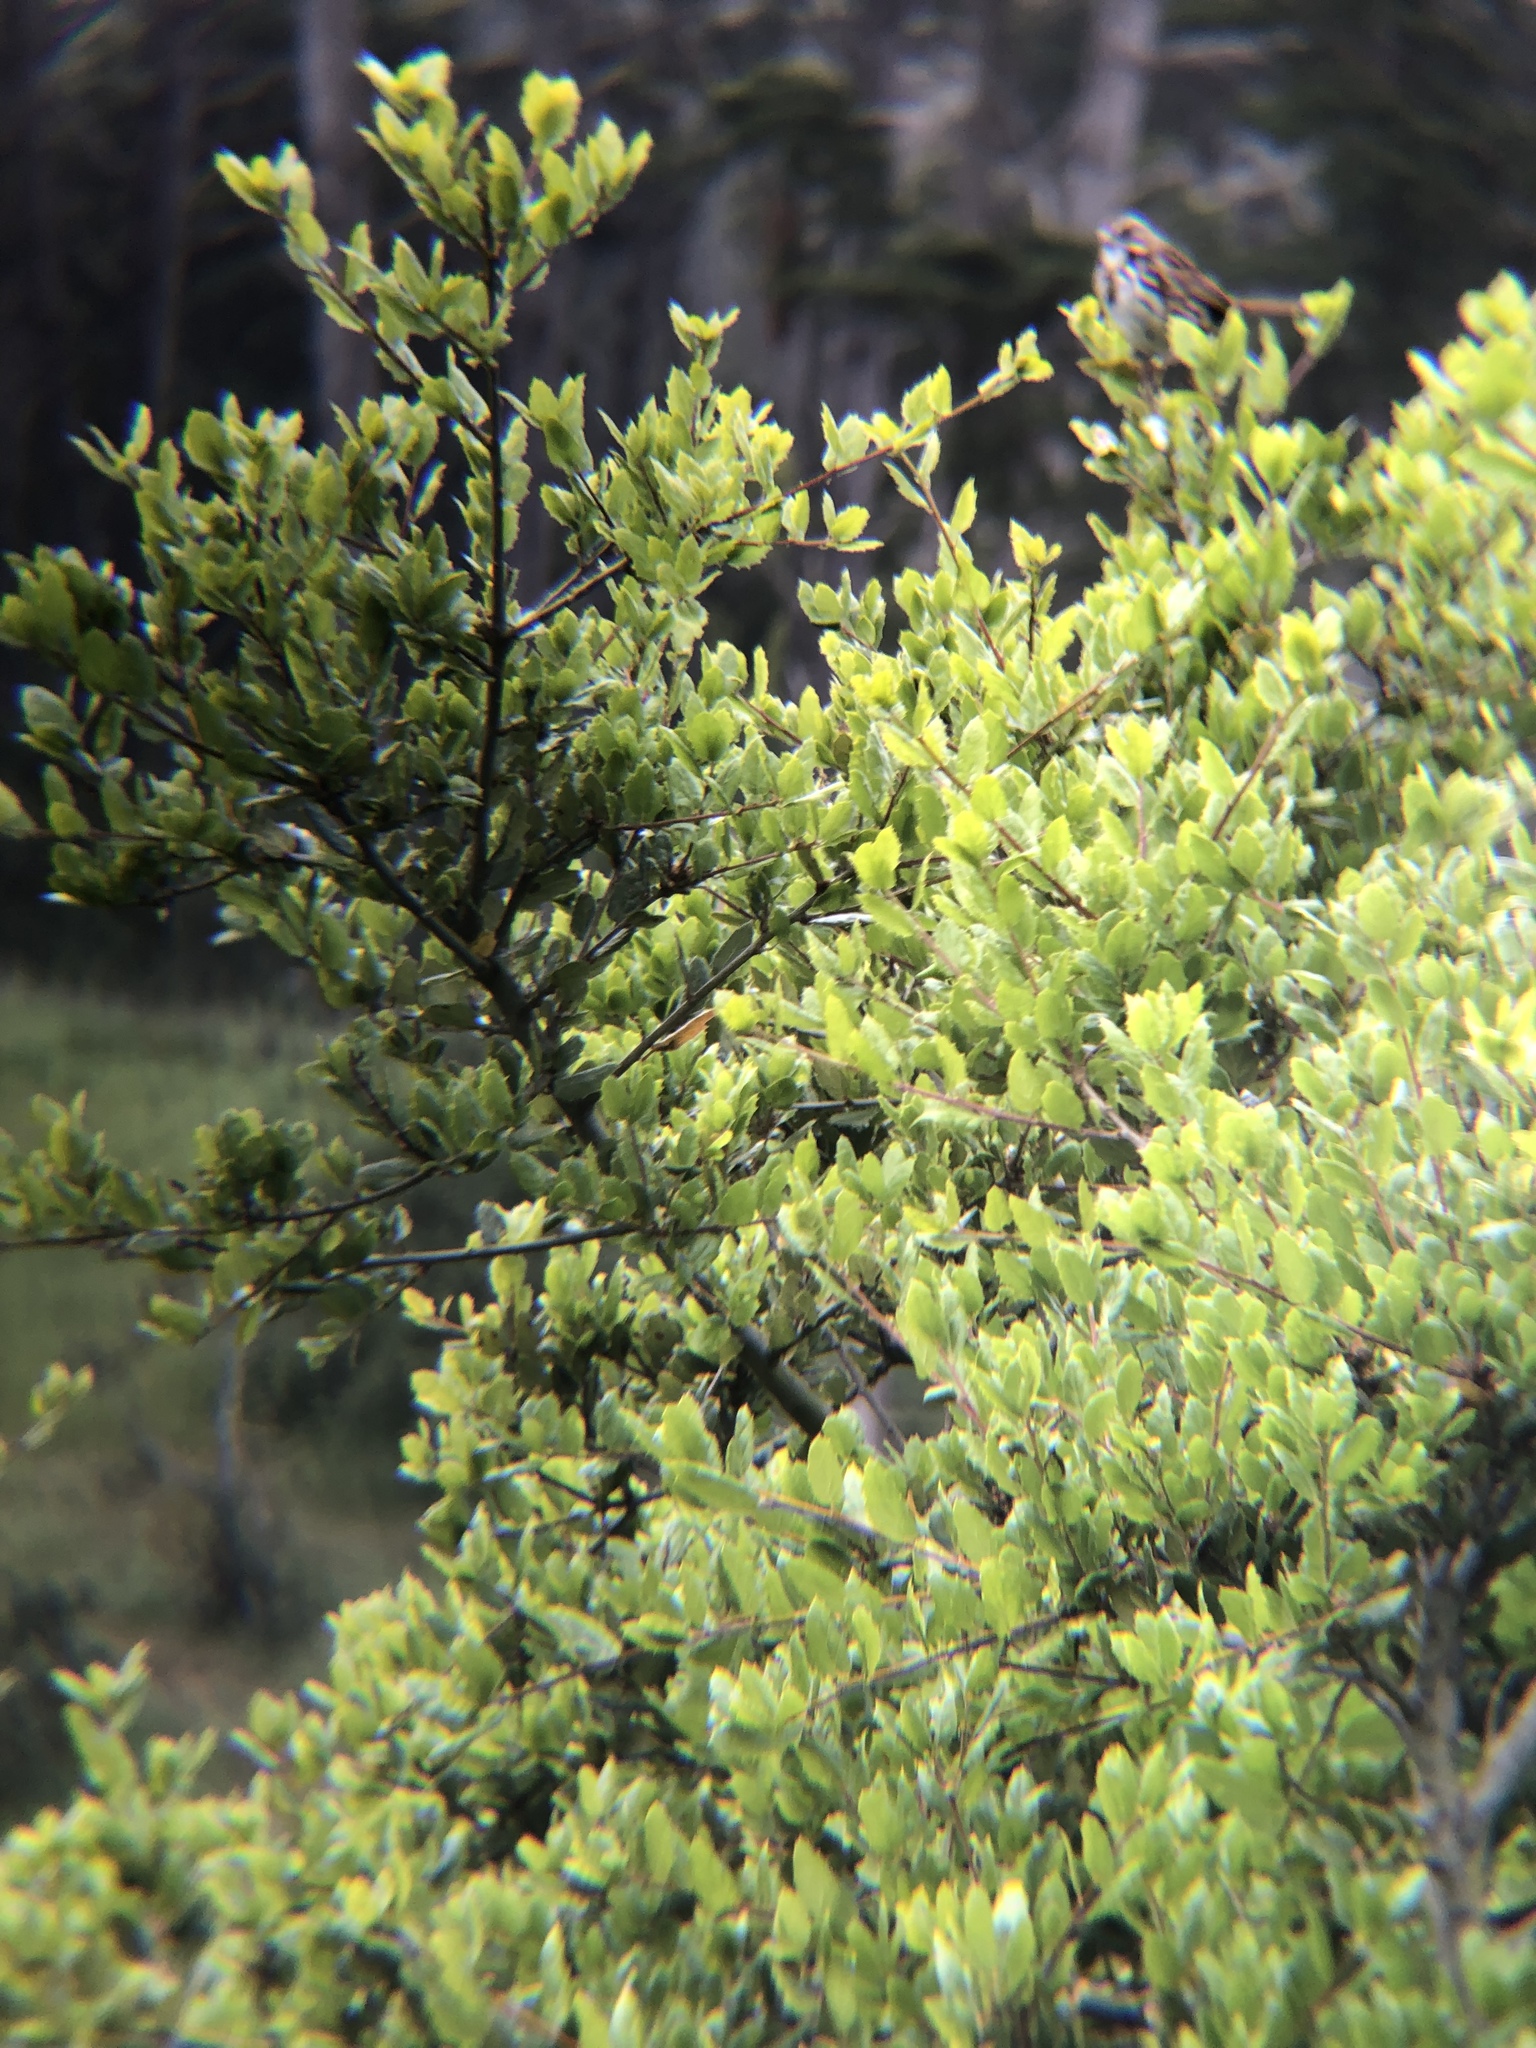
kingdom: Animalia
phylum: Chordata
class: Aves
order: Passeriformes
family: Passerellidae
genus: Melospiza
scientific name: Melospiza melodia
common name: Song sparrow
